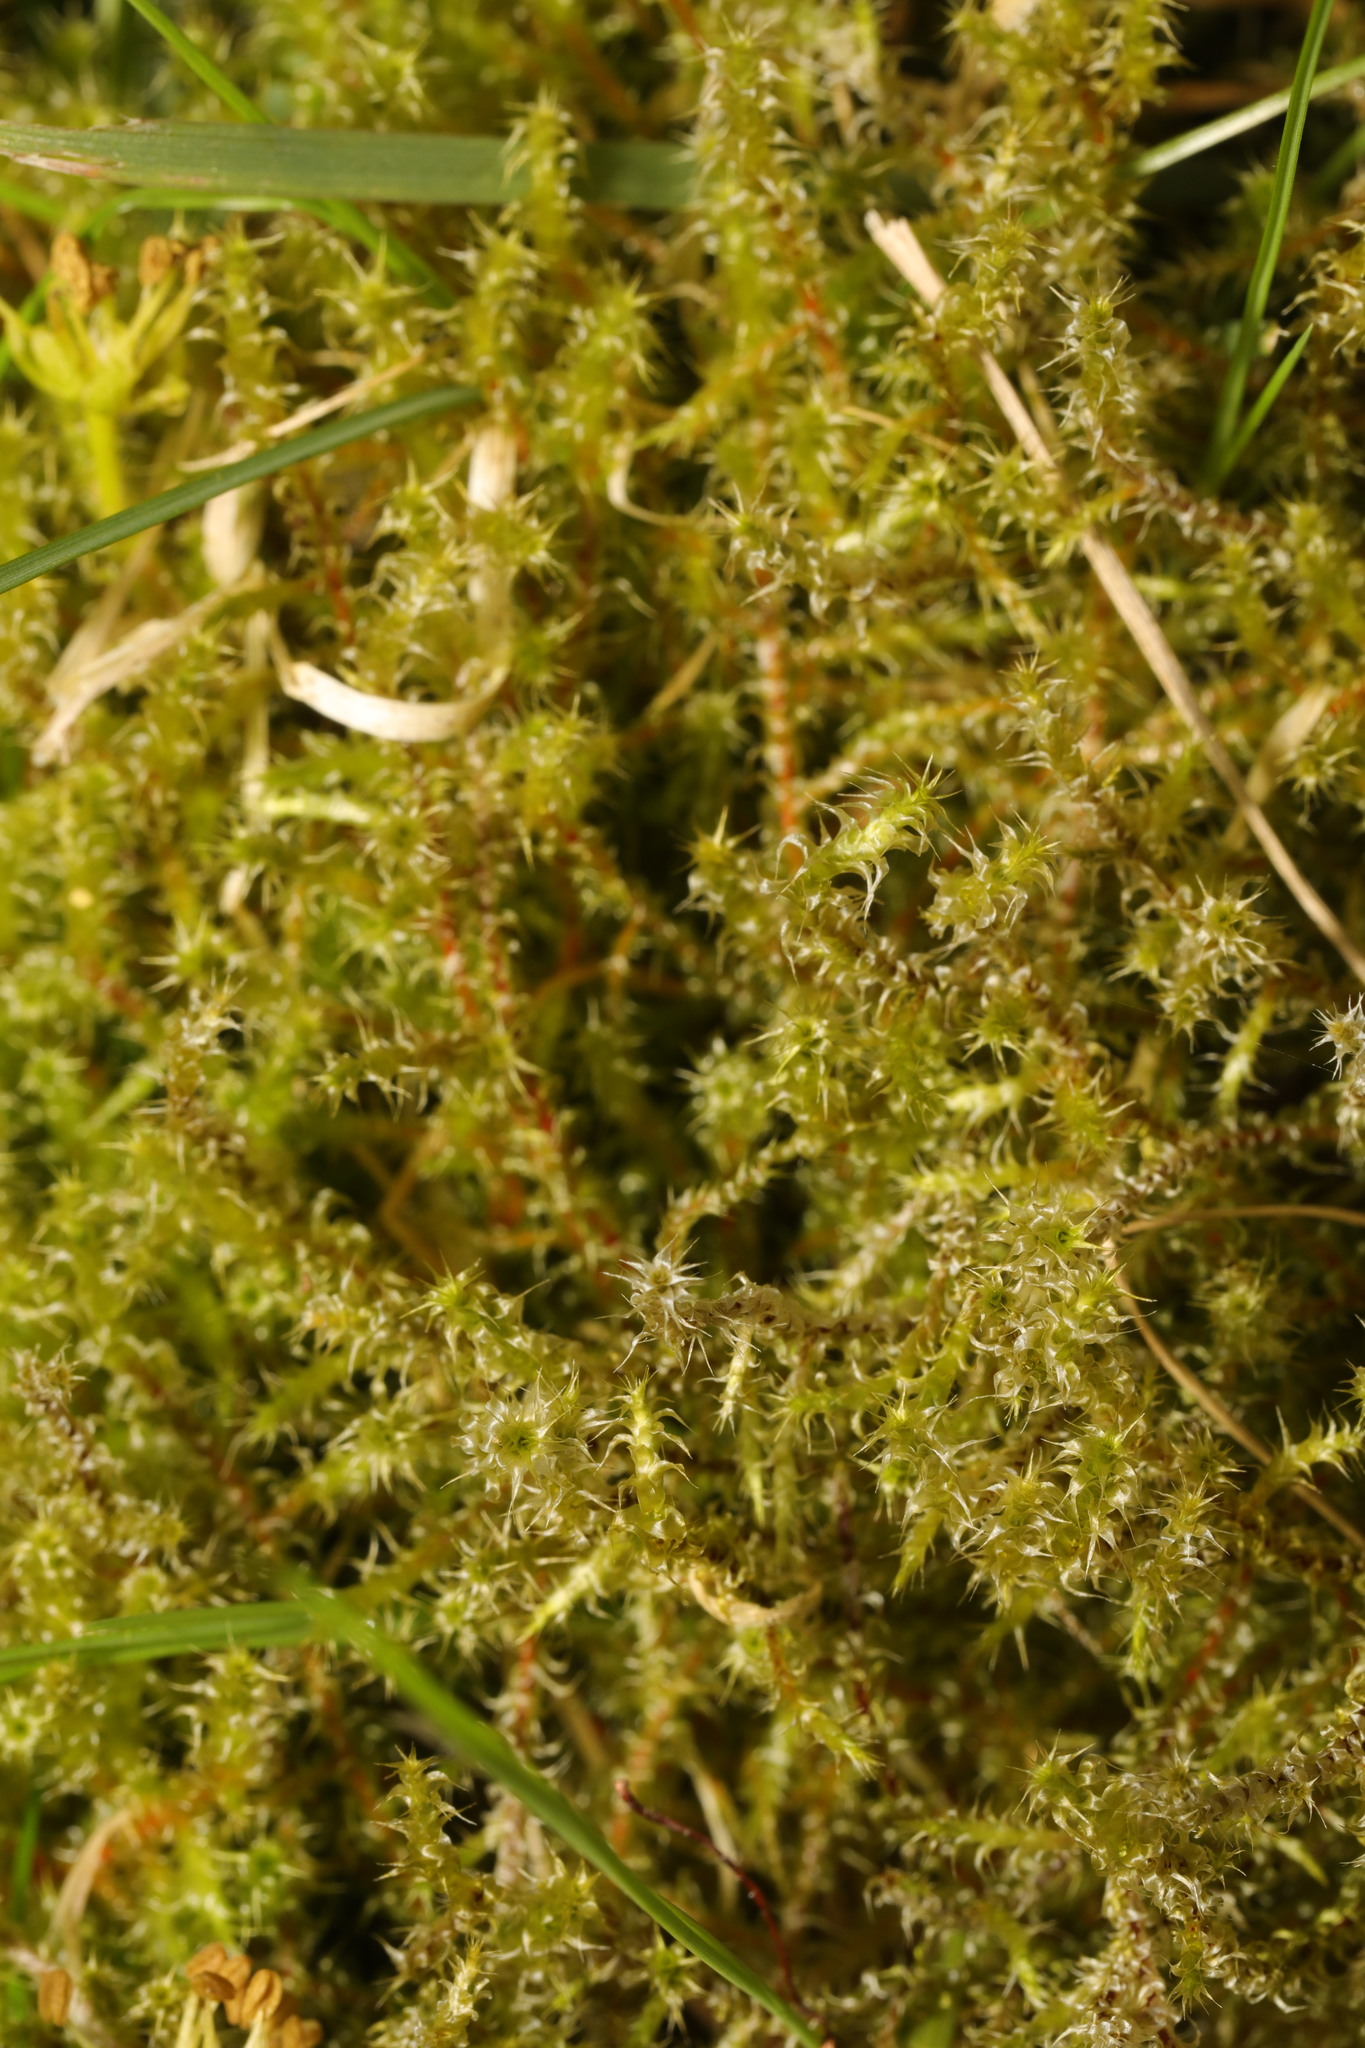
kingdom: Plantae
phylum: Bryophyta
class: Bryopsida
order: Hypnales
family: Hylocomiaceae
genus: Rhytidiadelphus
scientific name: Rhytidiadelphus squarrosus
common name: Springy turf-moss
